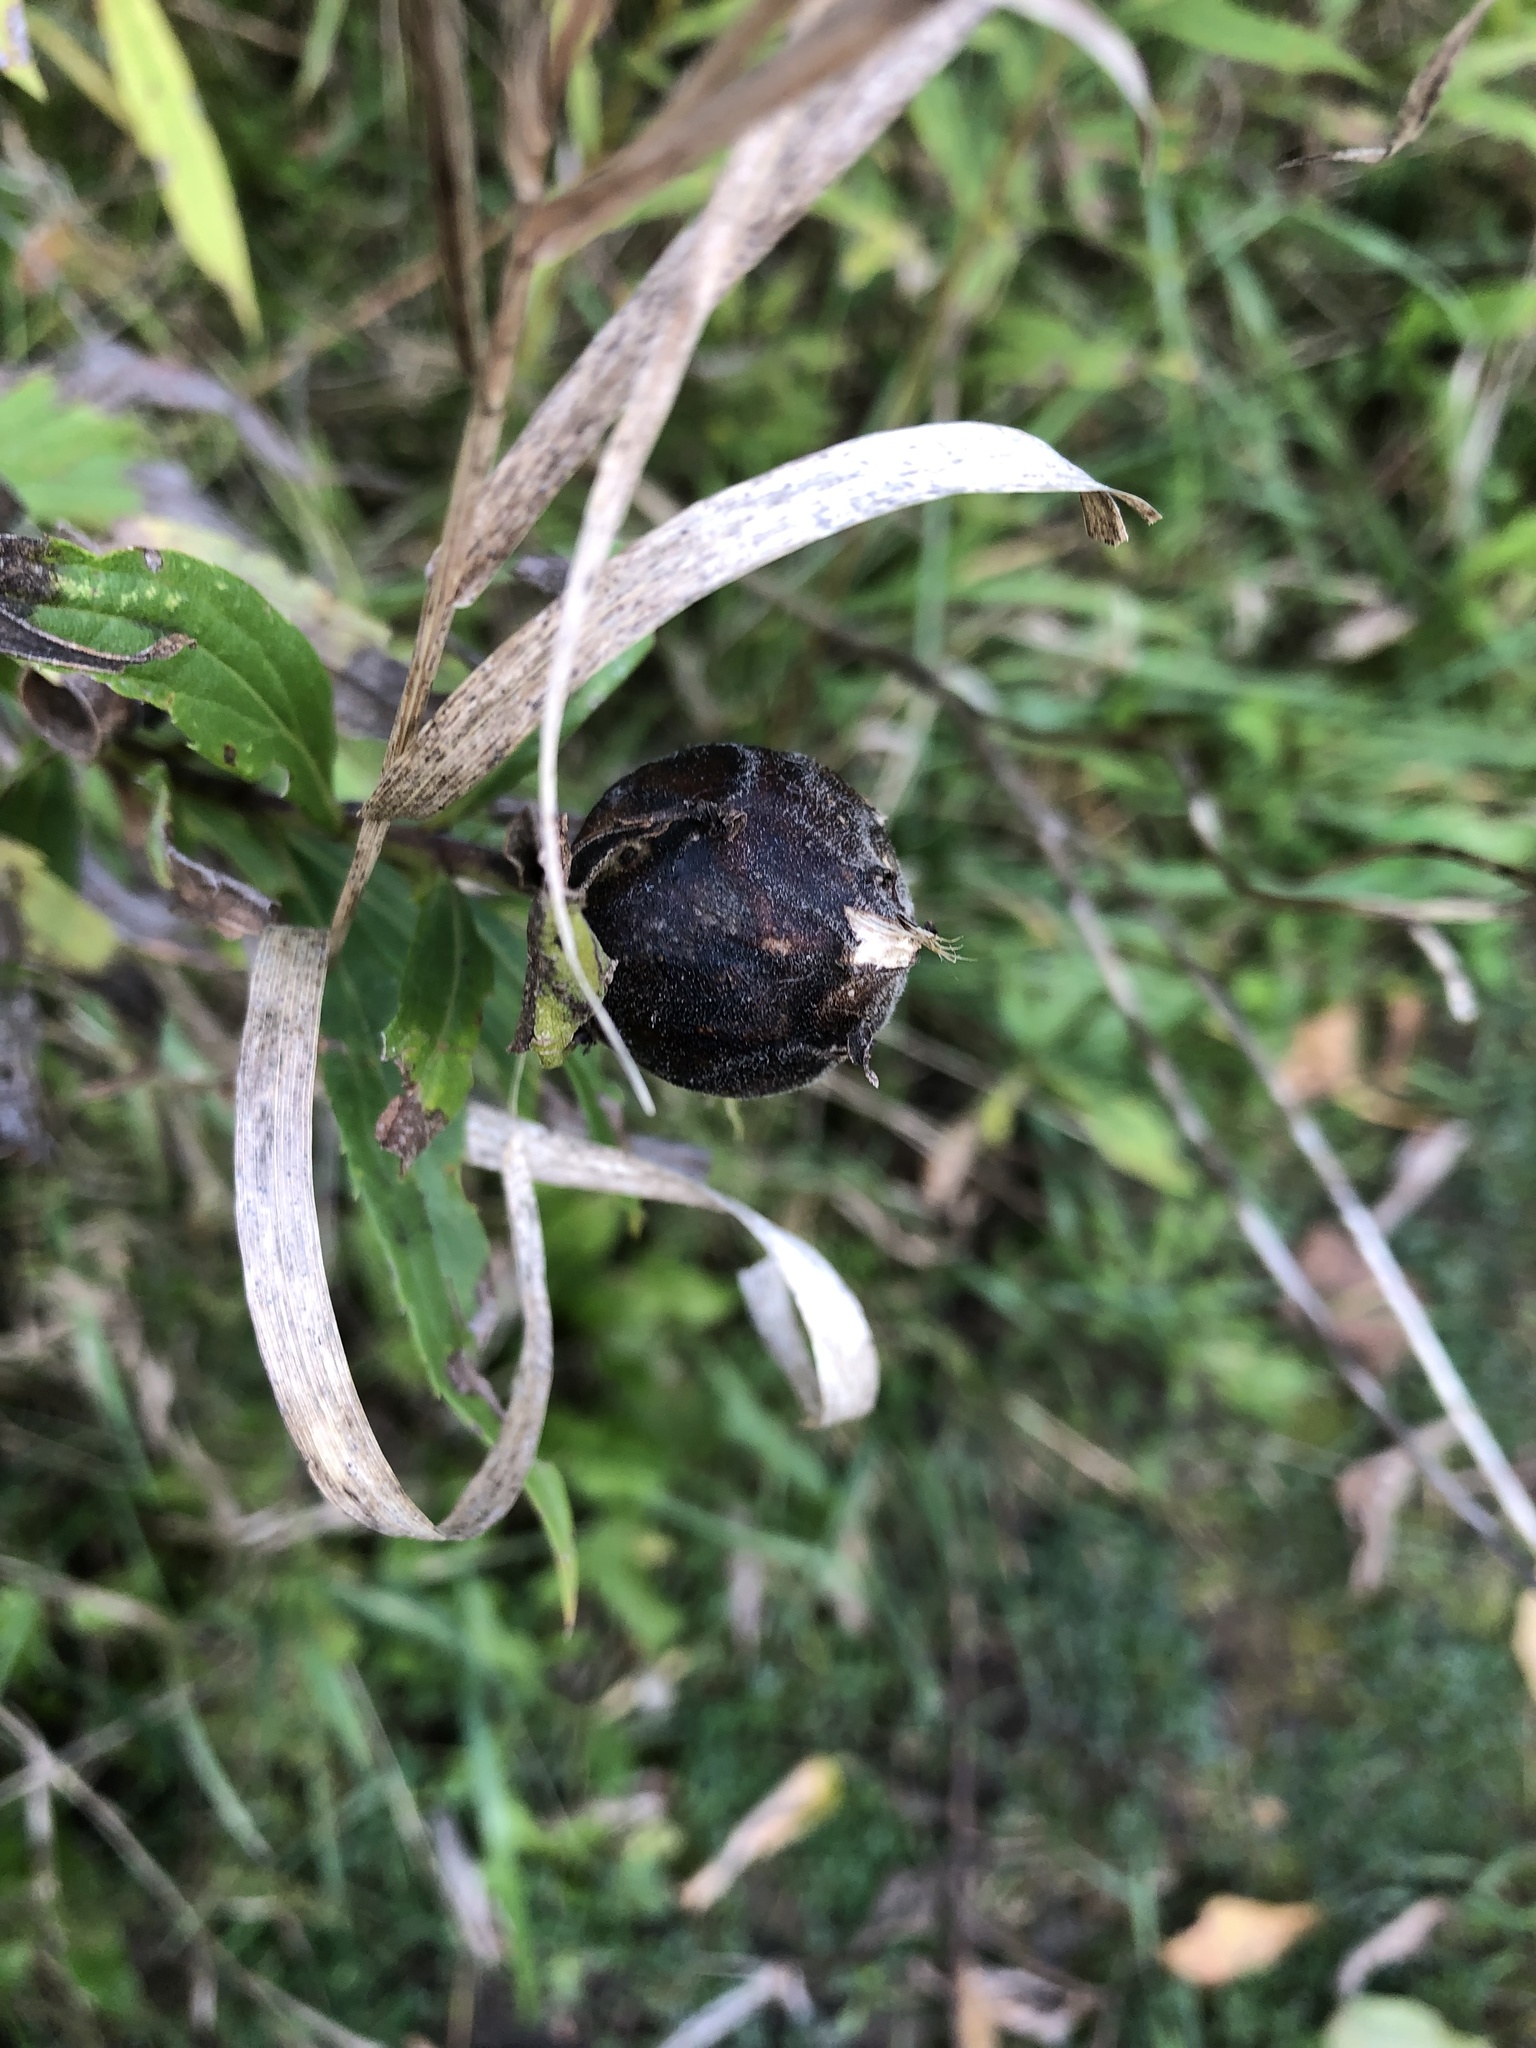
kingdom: Animalia
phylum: Arthropoda
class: Insecta
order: Diptera
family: Tephritidae
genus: Eurosta
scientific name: Eurosta solidaginis
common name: Goldenrod gall fly
